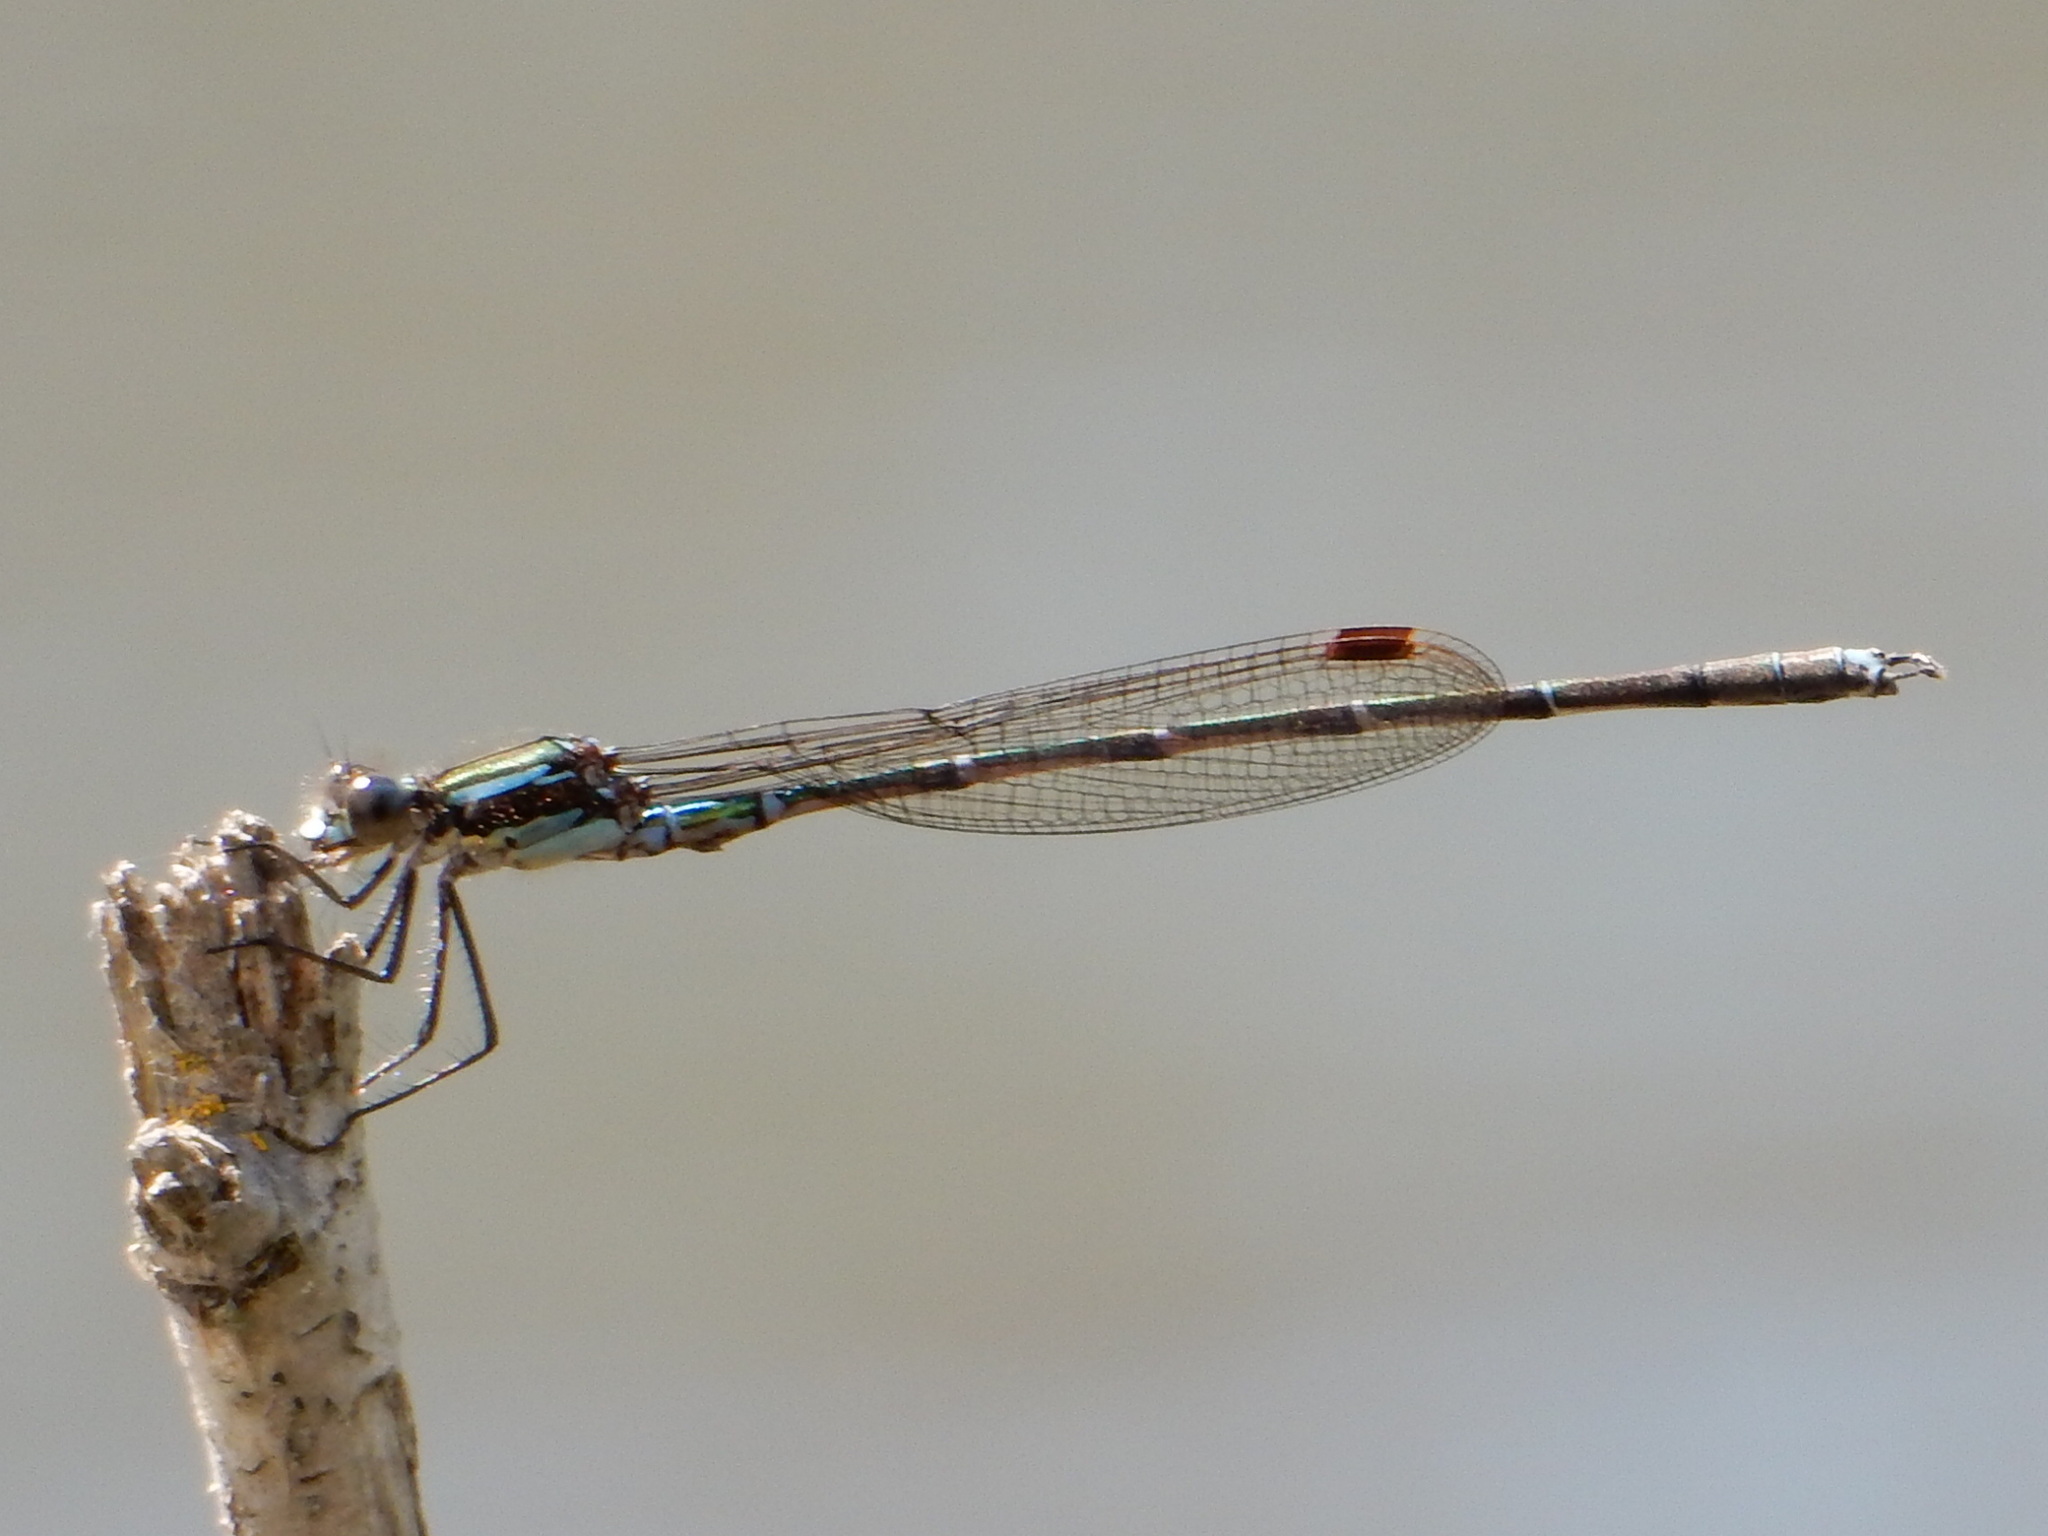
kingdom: Animalia
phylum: Arthropoda
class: Insecta
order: Odonata
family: Lestidae
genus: Austrolestes
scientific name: Austrolestes colensonis
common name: Blue damselfly
